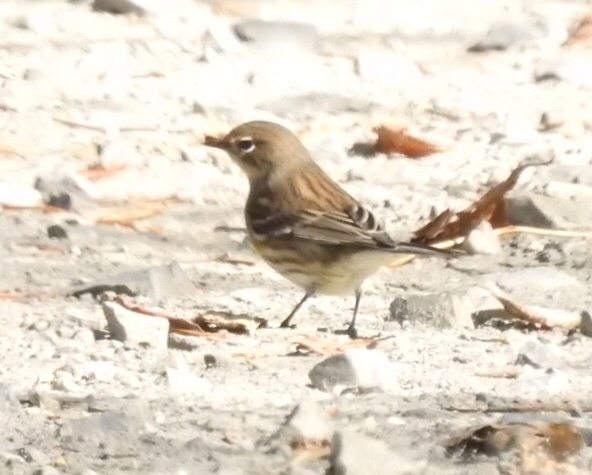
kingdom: Animalia
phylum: Chordata
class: Aves
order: Passeriformes
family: Parulidae
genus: Setophaga
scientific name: Setophaga coronata
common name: Myrtle warbler
